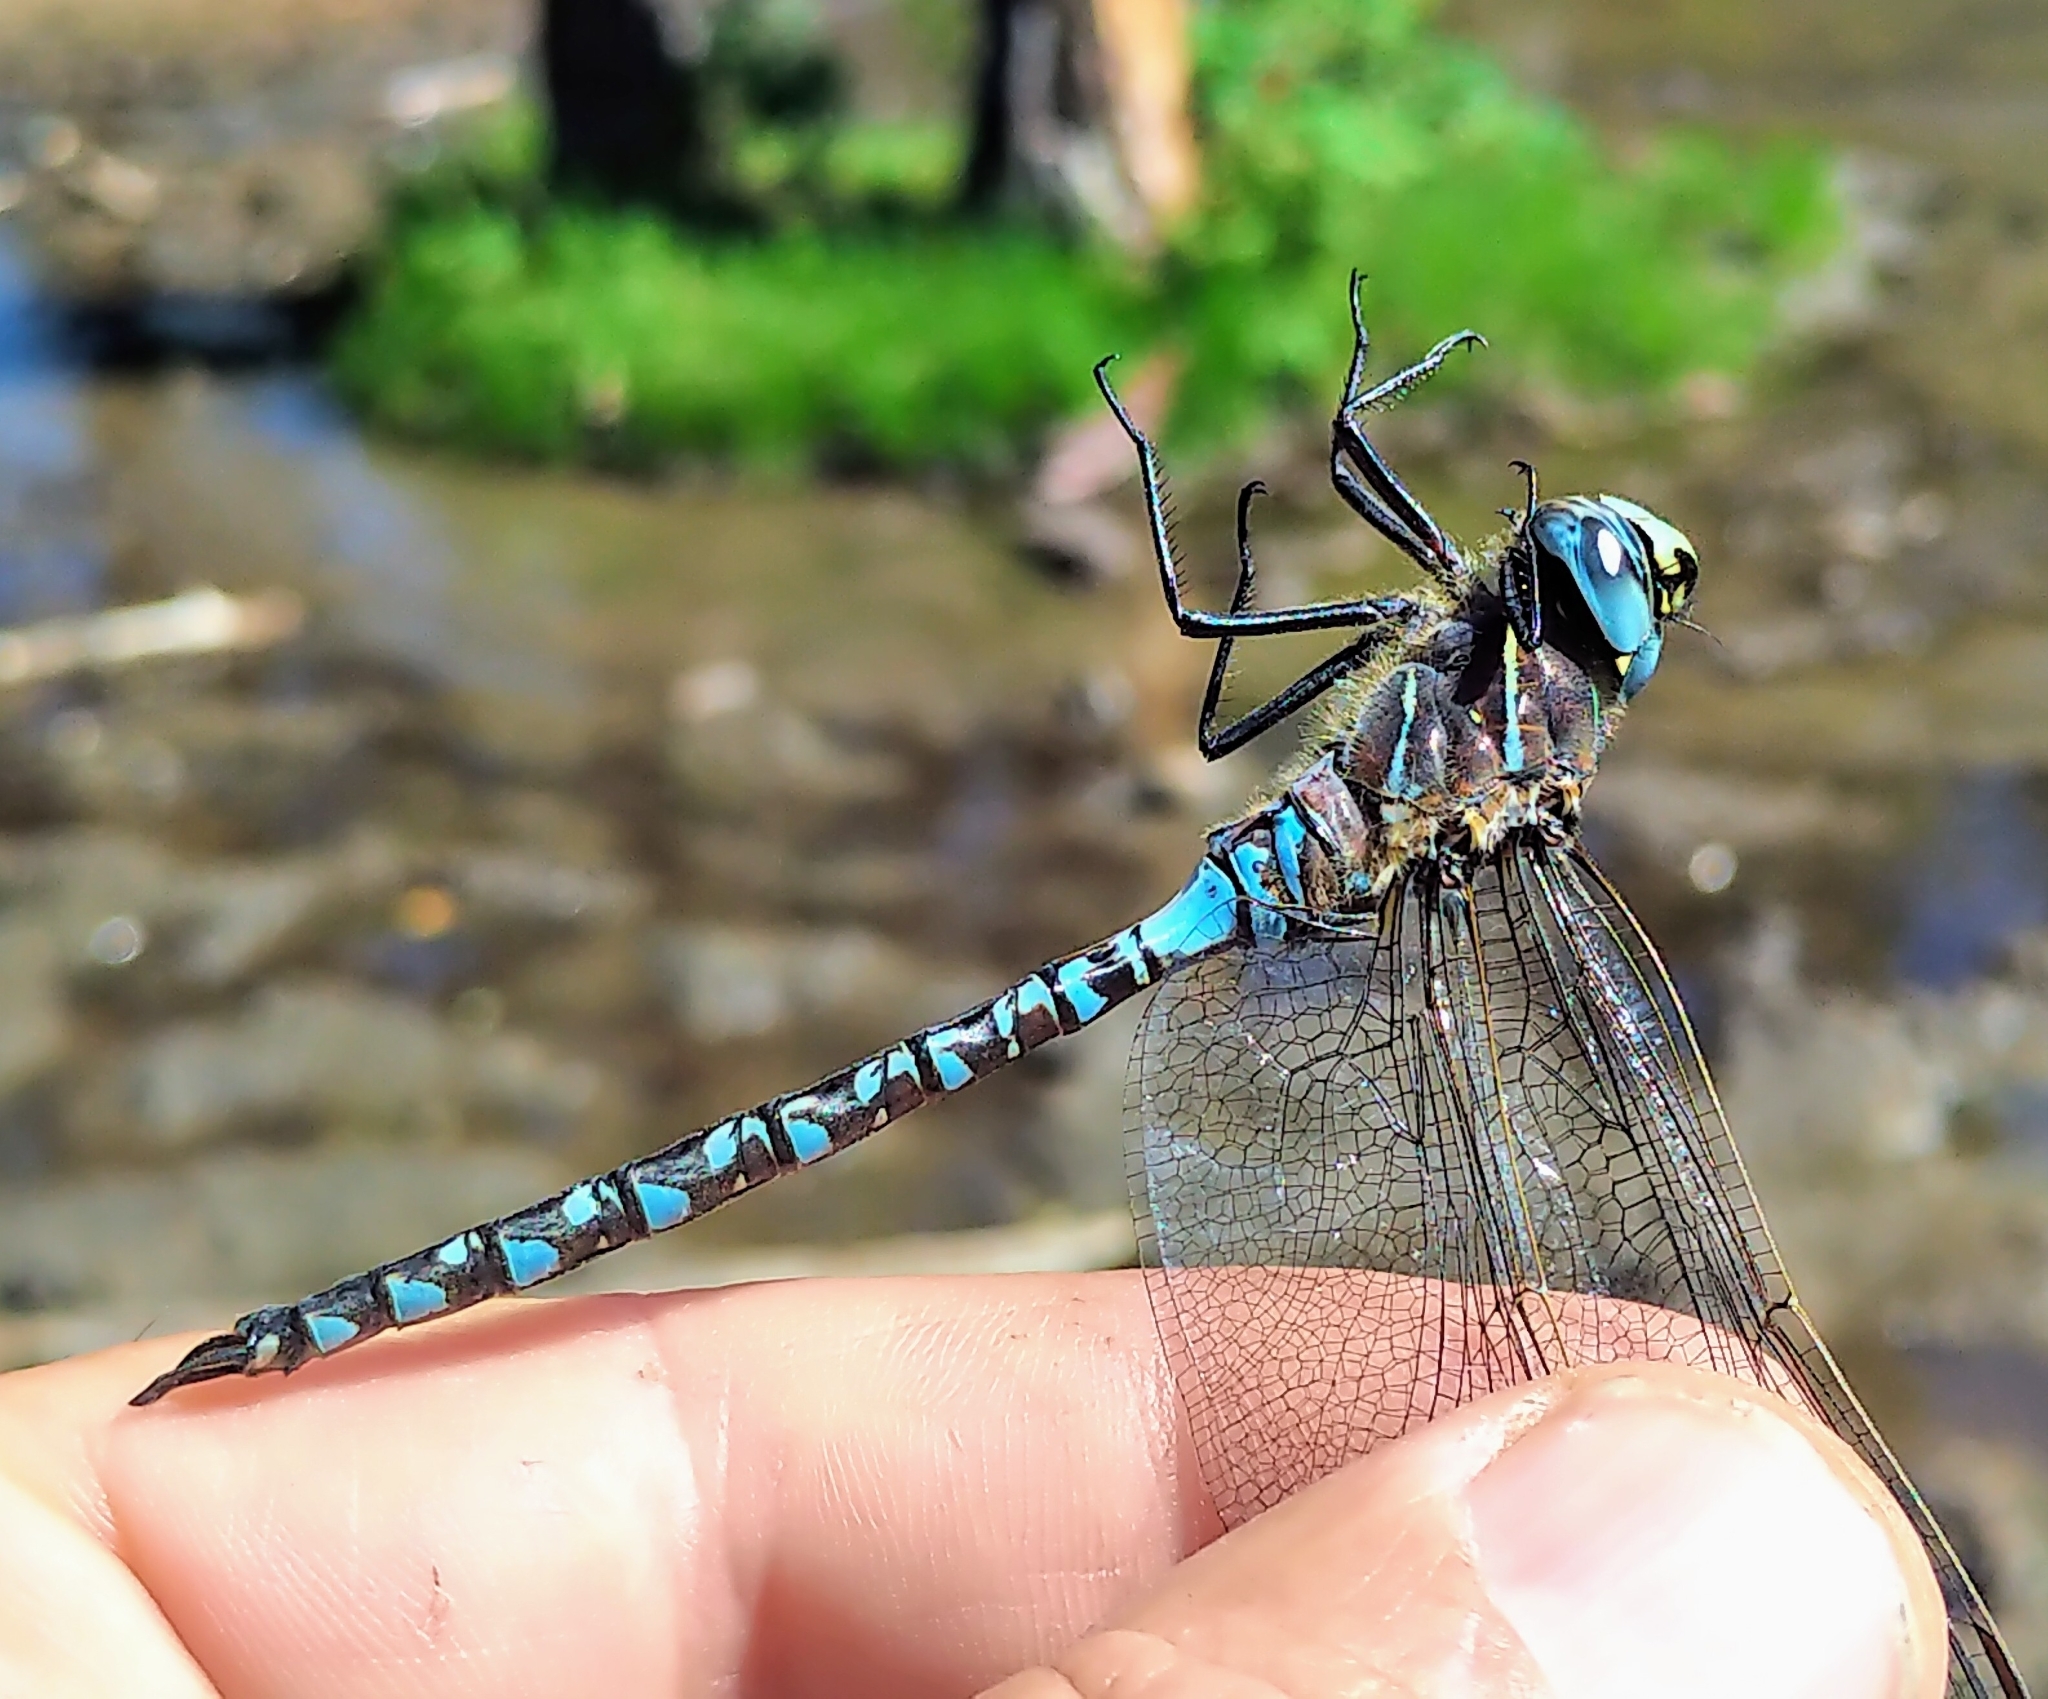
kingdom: Animalia
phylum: Arthropoda
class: Insecta
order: Odonata
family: Aeshnidae
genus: Aeshna
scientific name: Aeshna interrupta
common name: Variable darner
